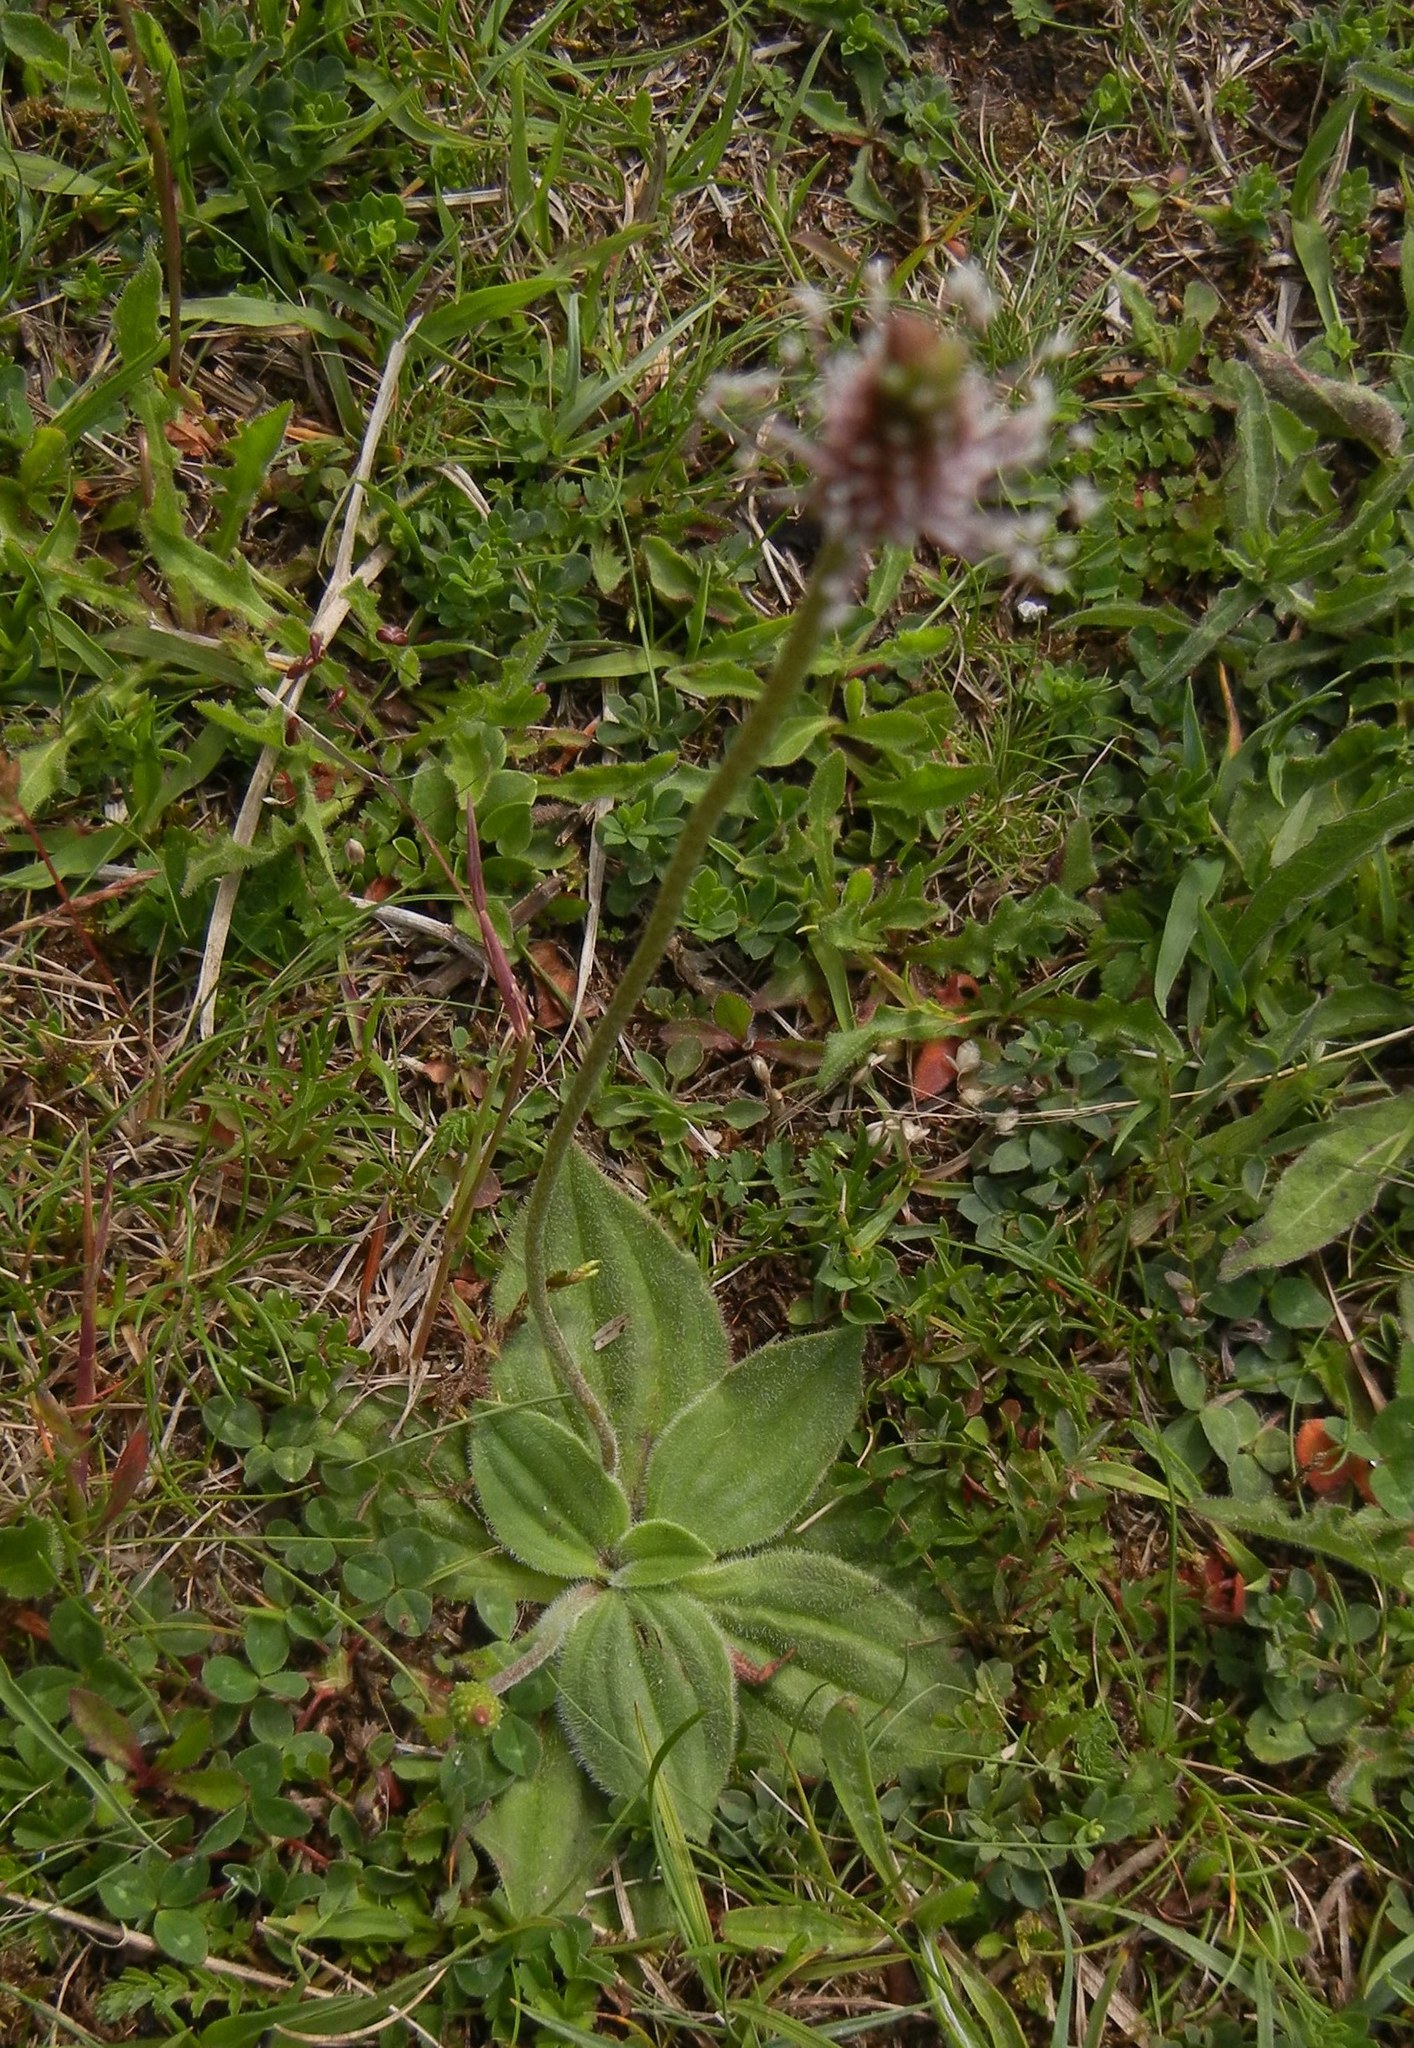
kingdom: Plantae
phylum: Tracheophyta
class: Magnoliopsida
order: Lamiales
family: Plantaginaceae
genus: Plantago
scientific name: Plantago media
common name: Hoary plantain
